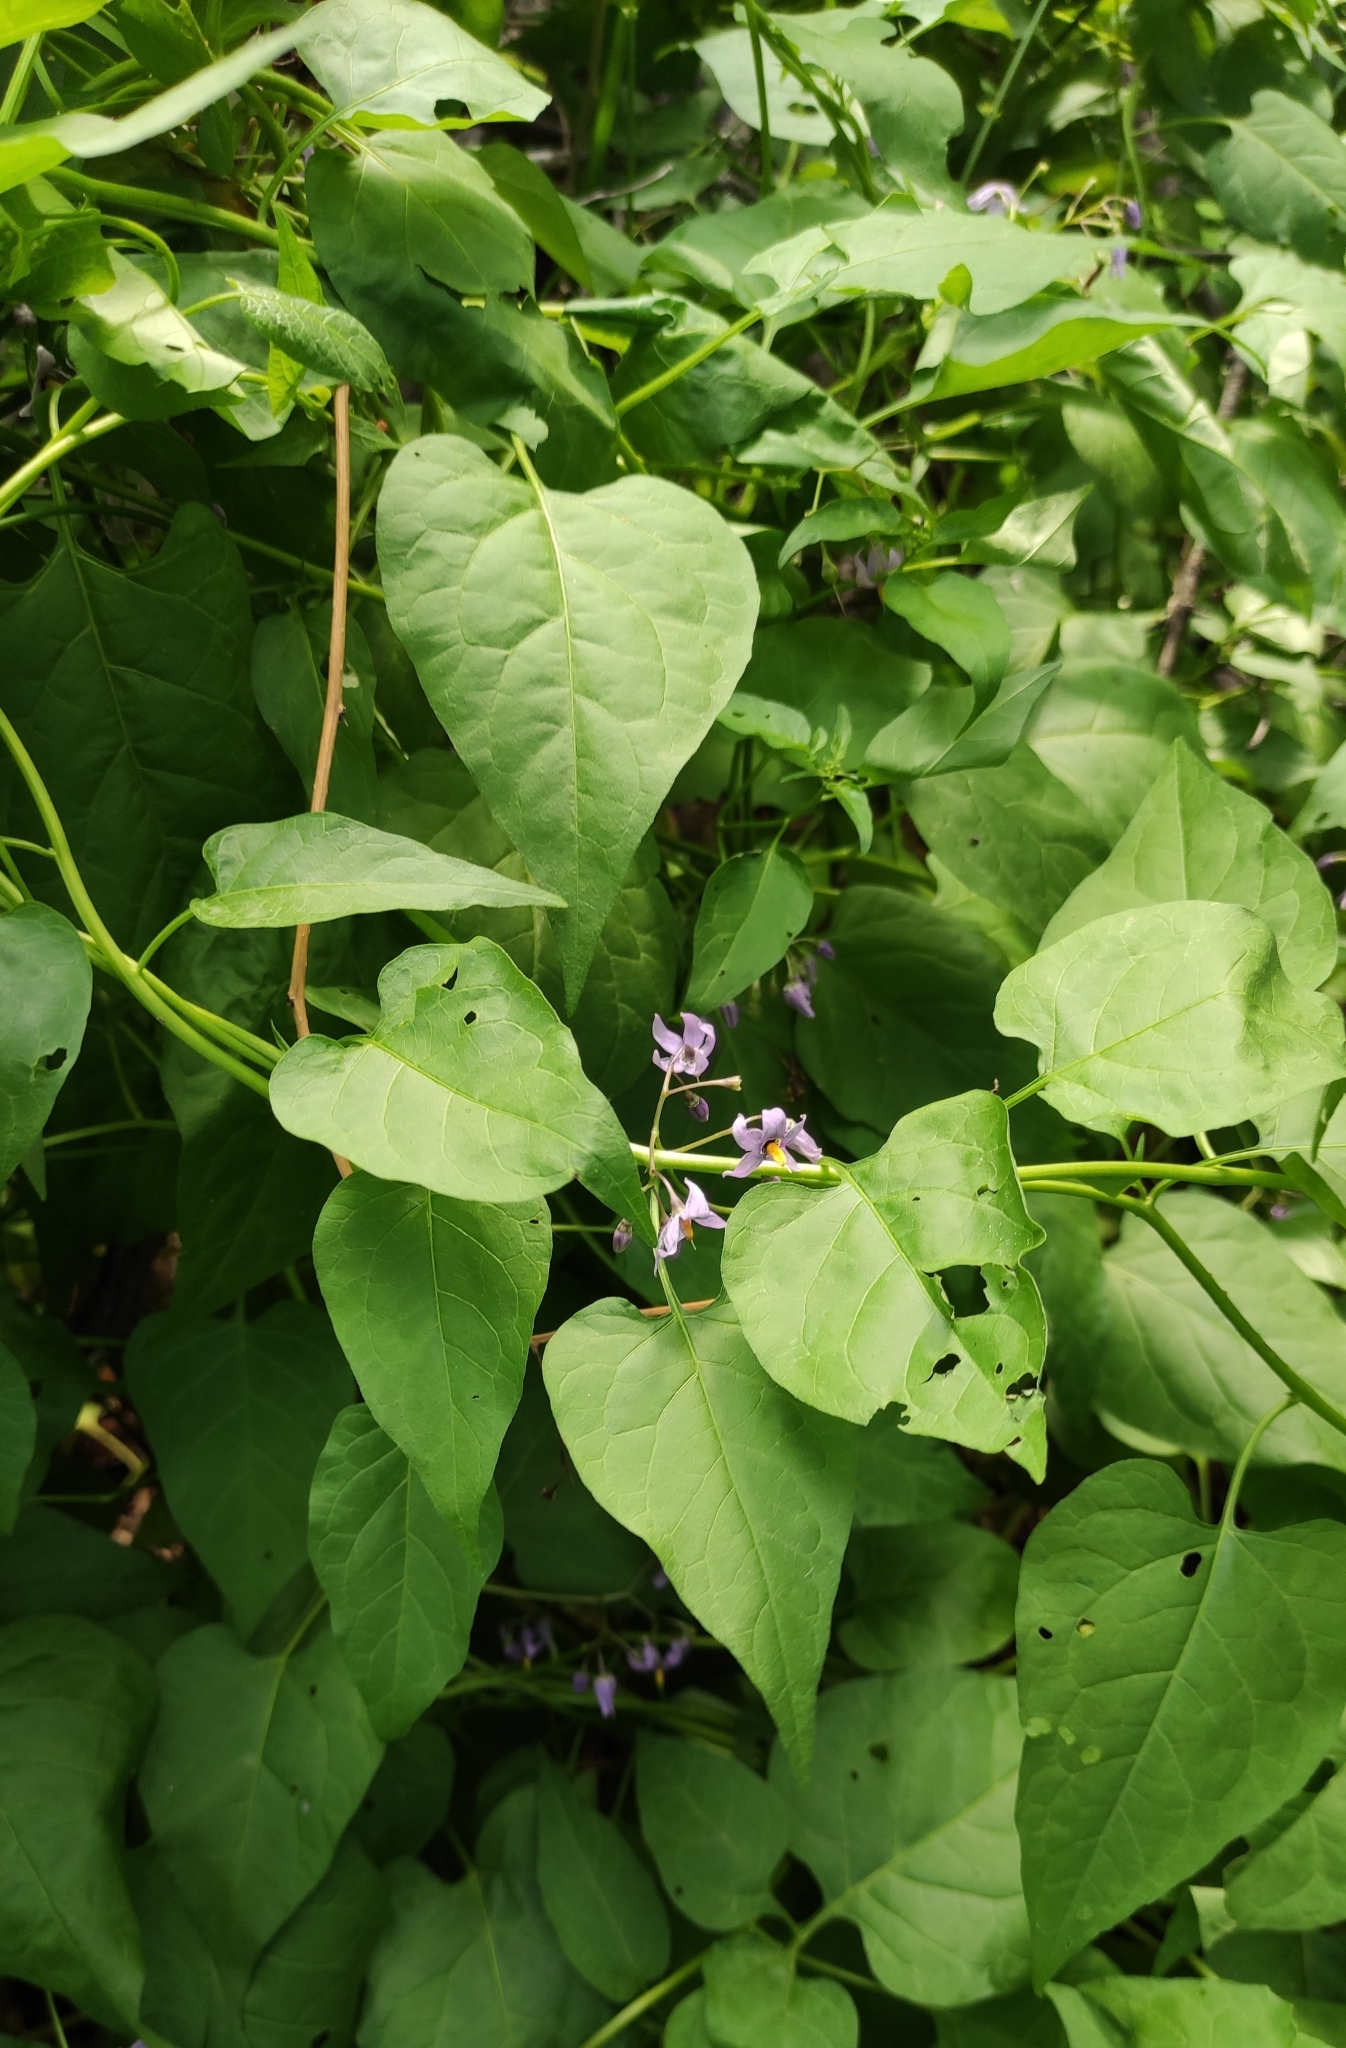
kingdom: Plantae
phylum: Tracheophyta
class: Magnoliopsida
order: Solanales
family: Solanaceae
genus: Solanum
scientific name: Solanum dulcamara
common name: Climbing nightshade
